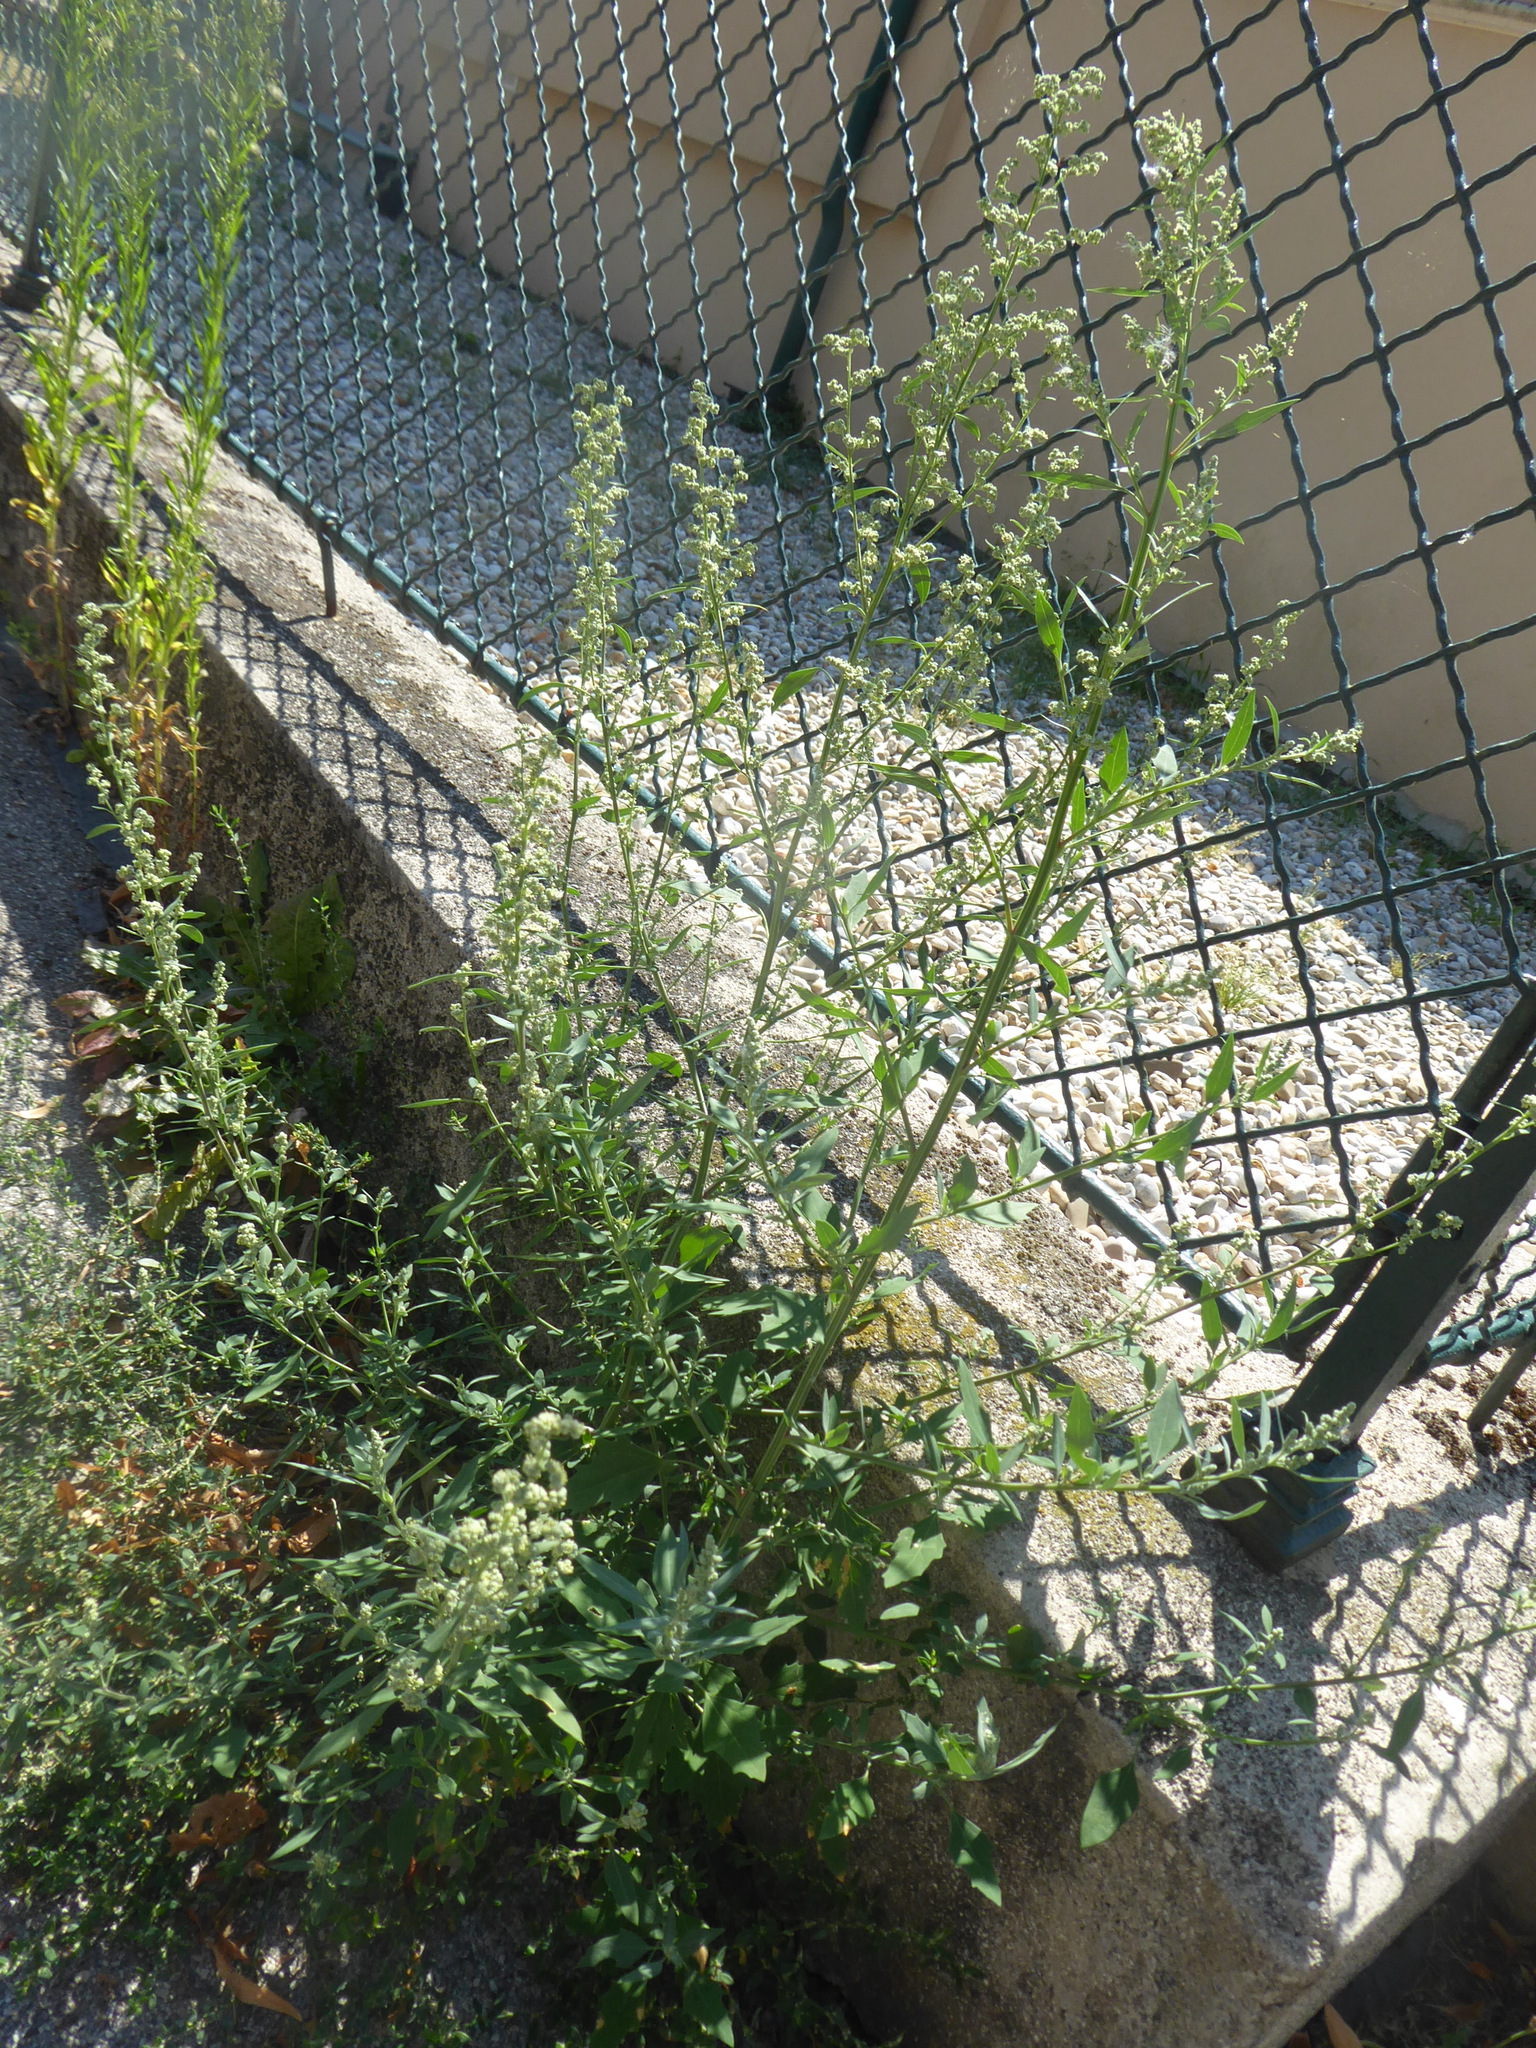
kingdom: Plantae
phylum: Tracheophyta
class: Magnoliopsida
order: Caryophyllales
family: Amaranthaceae
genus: Chenopodium
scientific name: Chenopodium album
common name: Fat-hen
